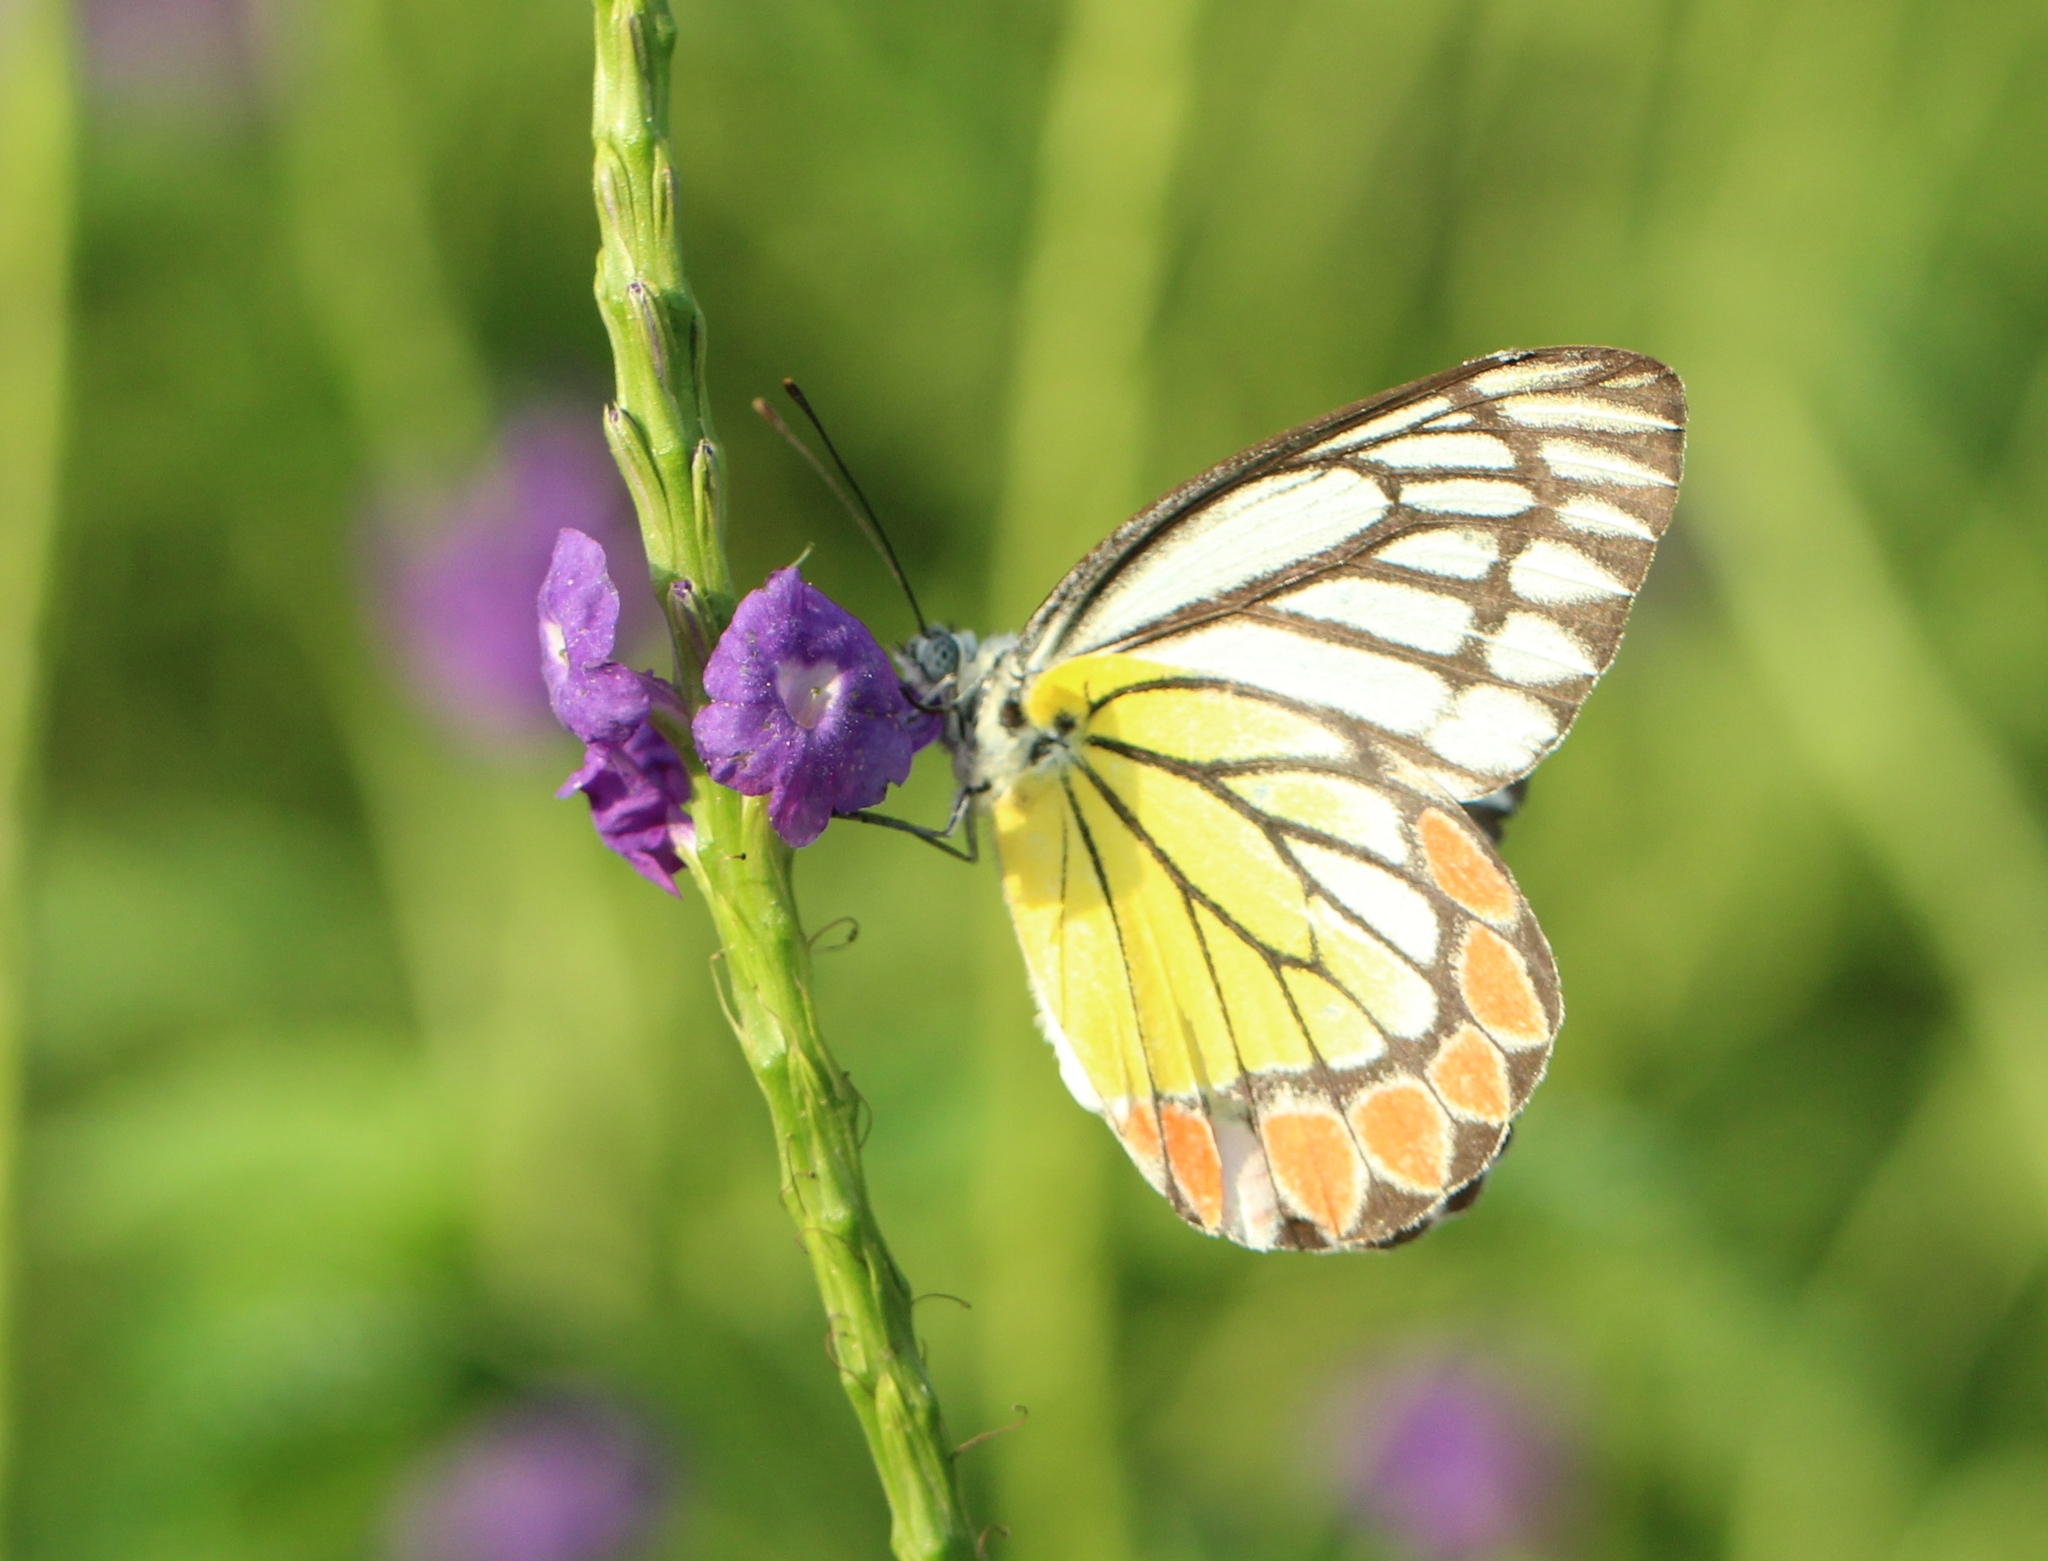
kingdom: Animalia
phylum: Arthropoda
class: Insecta
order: Lepidoptera
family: Pieridae
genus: Delias
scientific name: Delias eucharis
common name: Common jezebel
